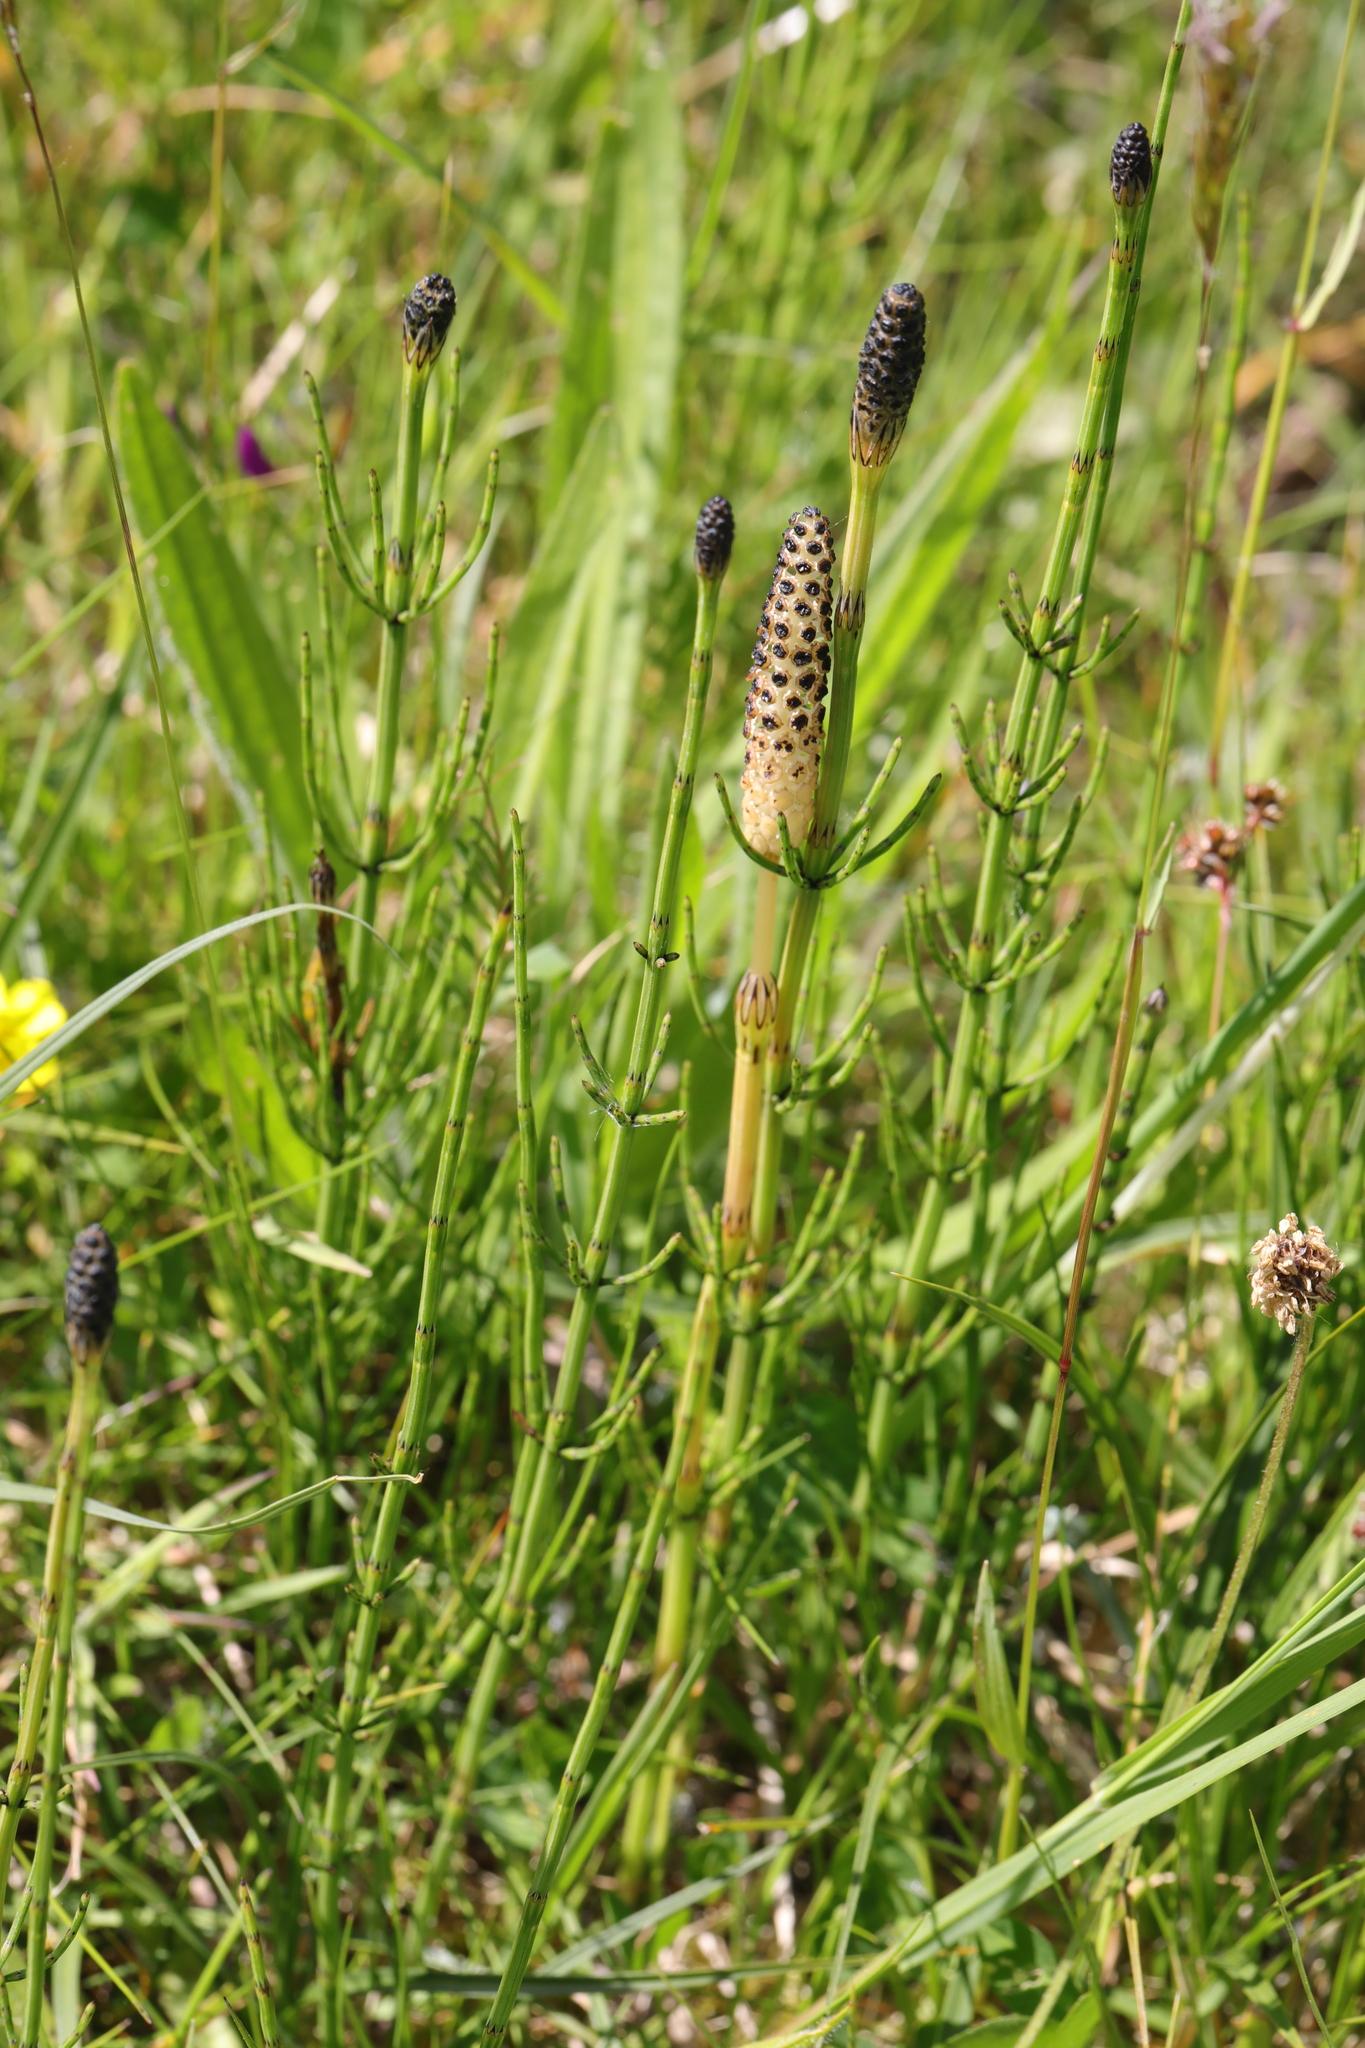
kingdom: Plantae
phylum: Tracheophyta
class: Polypodiopsida
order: Equisetales
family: Equisetaceae
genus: Equisetum
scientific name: Equisetum palustre
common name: Marsh horsetail
